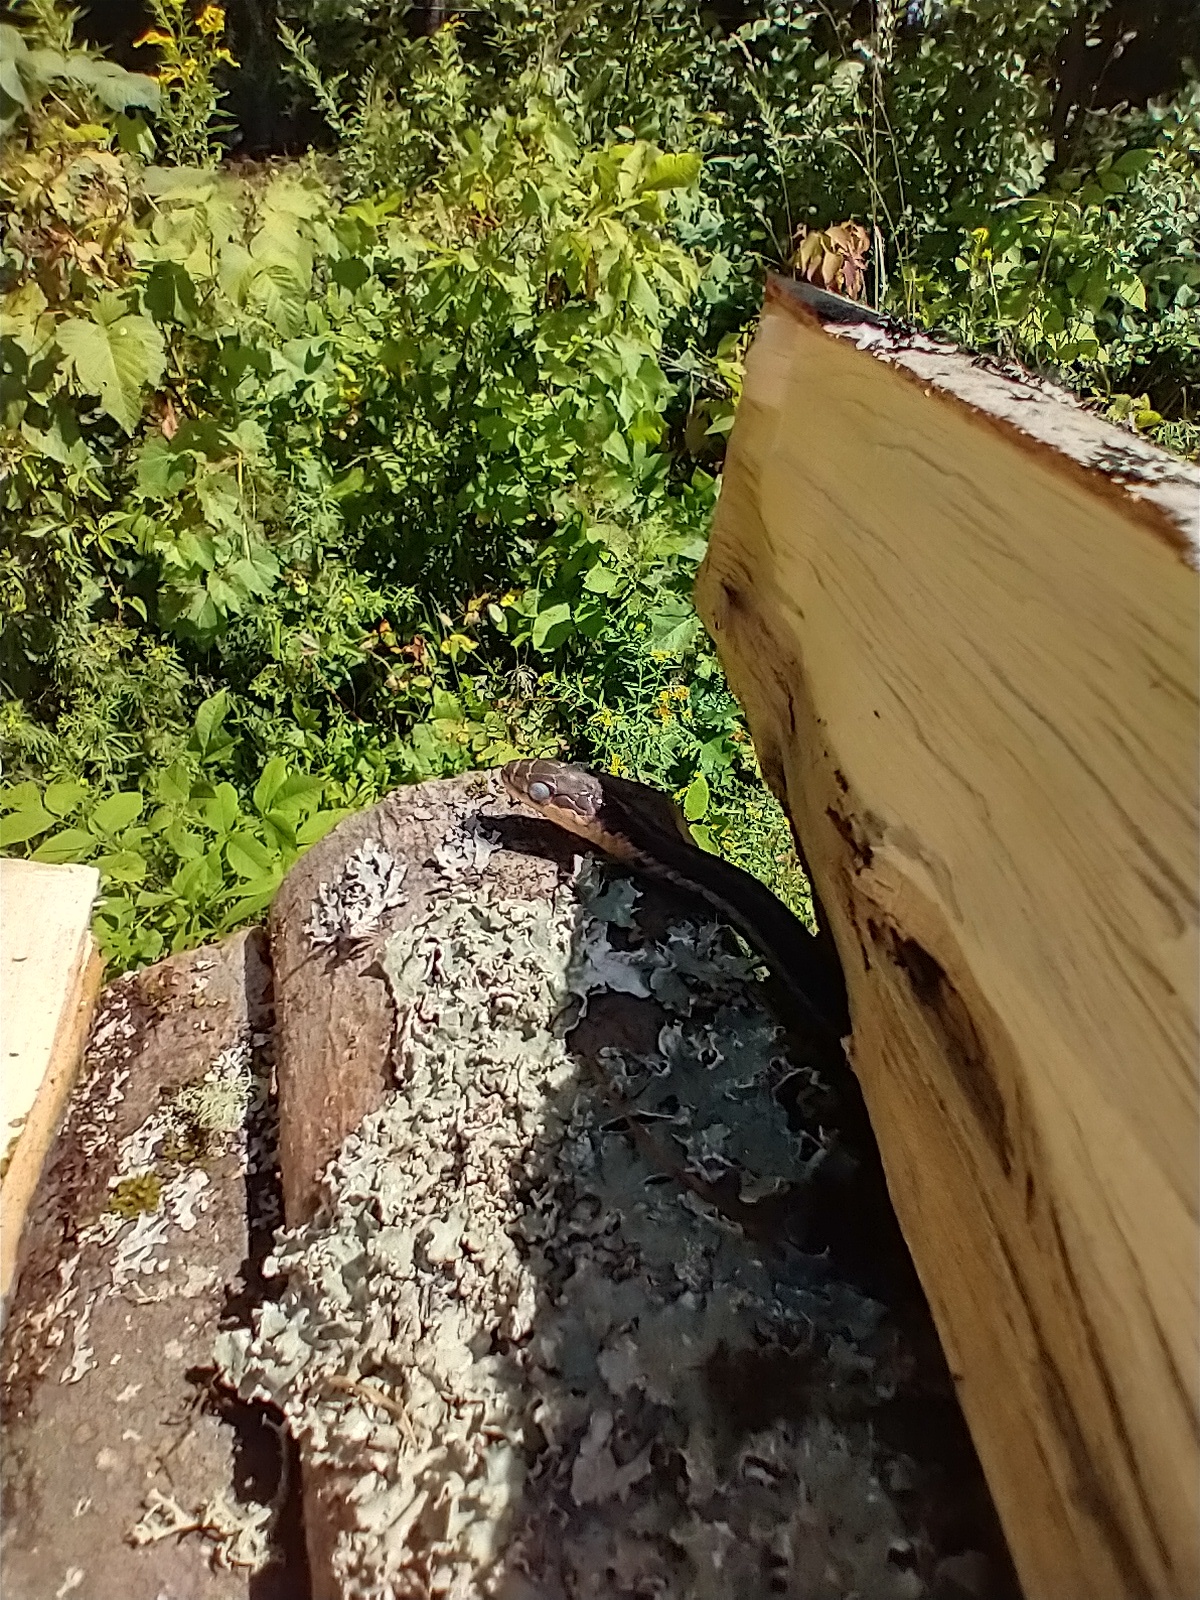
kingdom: Animalia
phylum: Chordata
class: Squamata
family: Colubridae
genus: Thamnophis
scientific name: Thamnophis sirtalis
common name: Common garter snake
